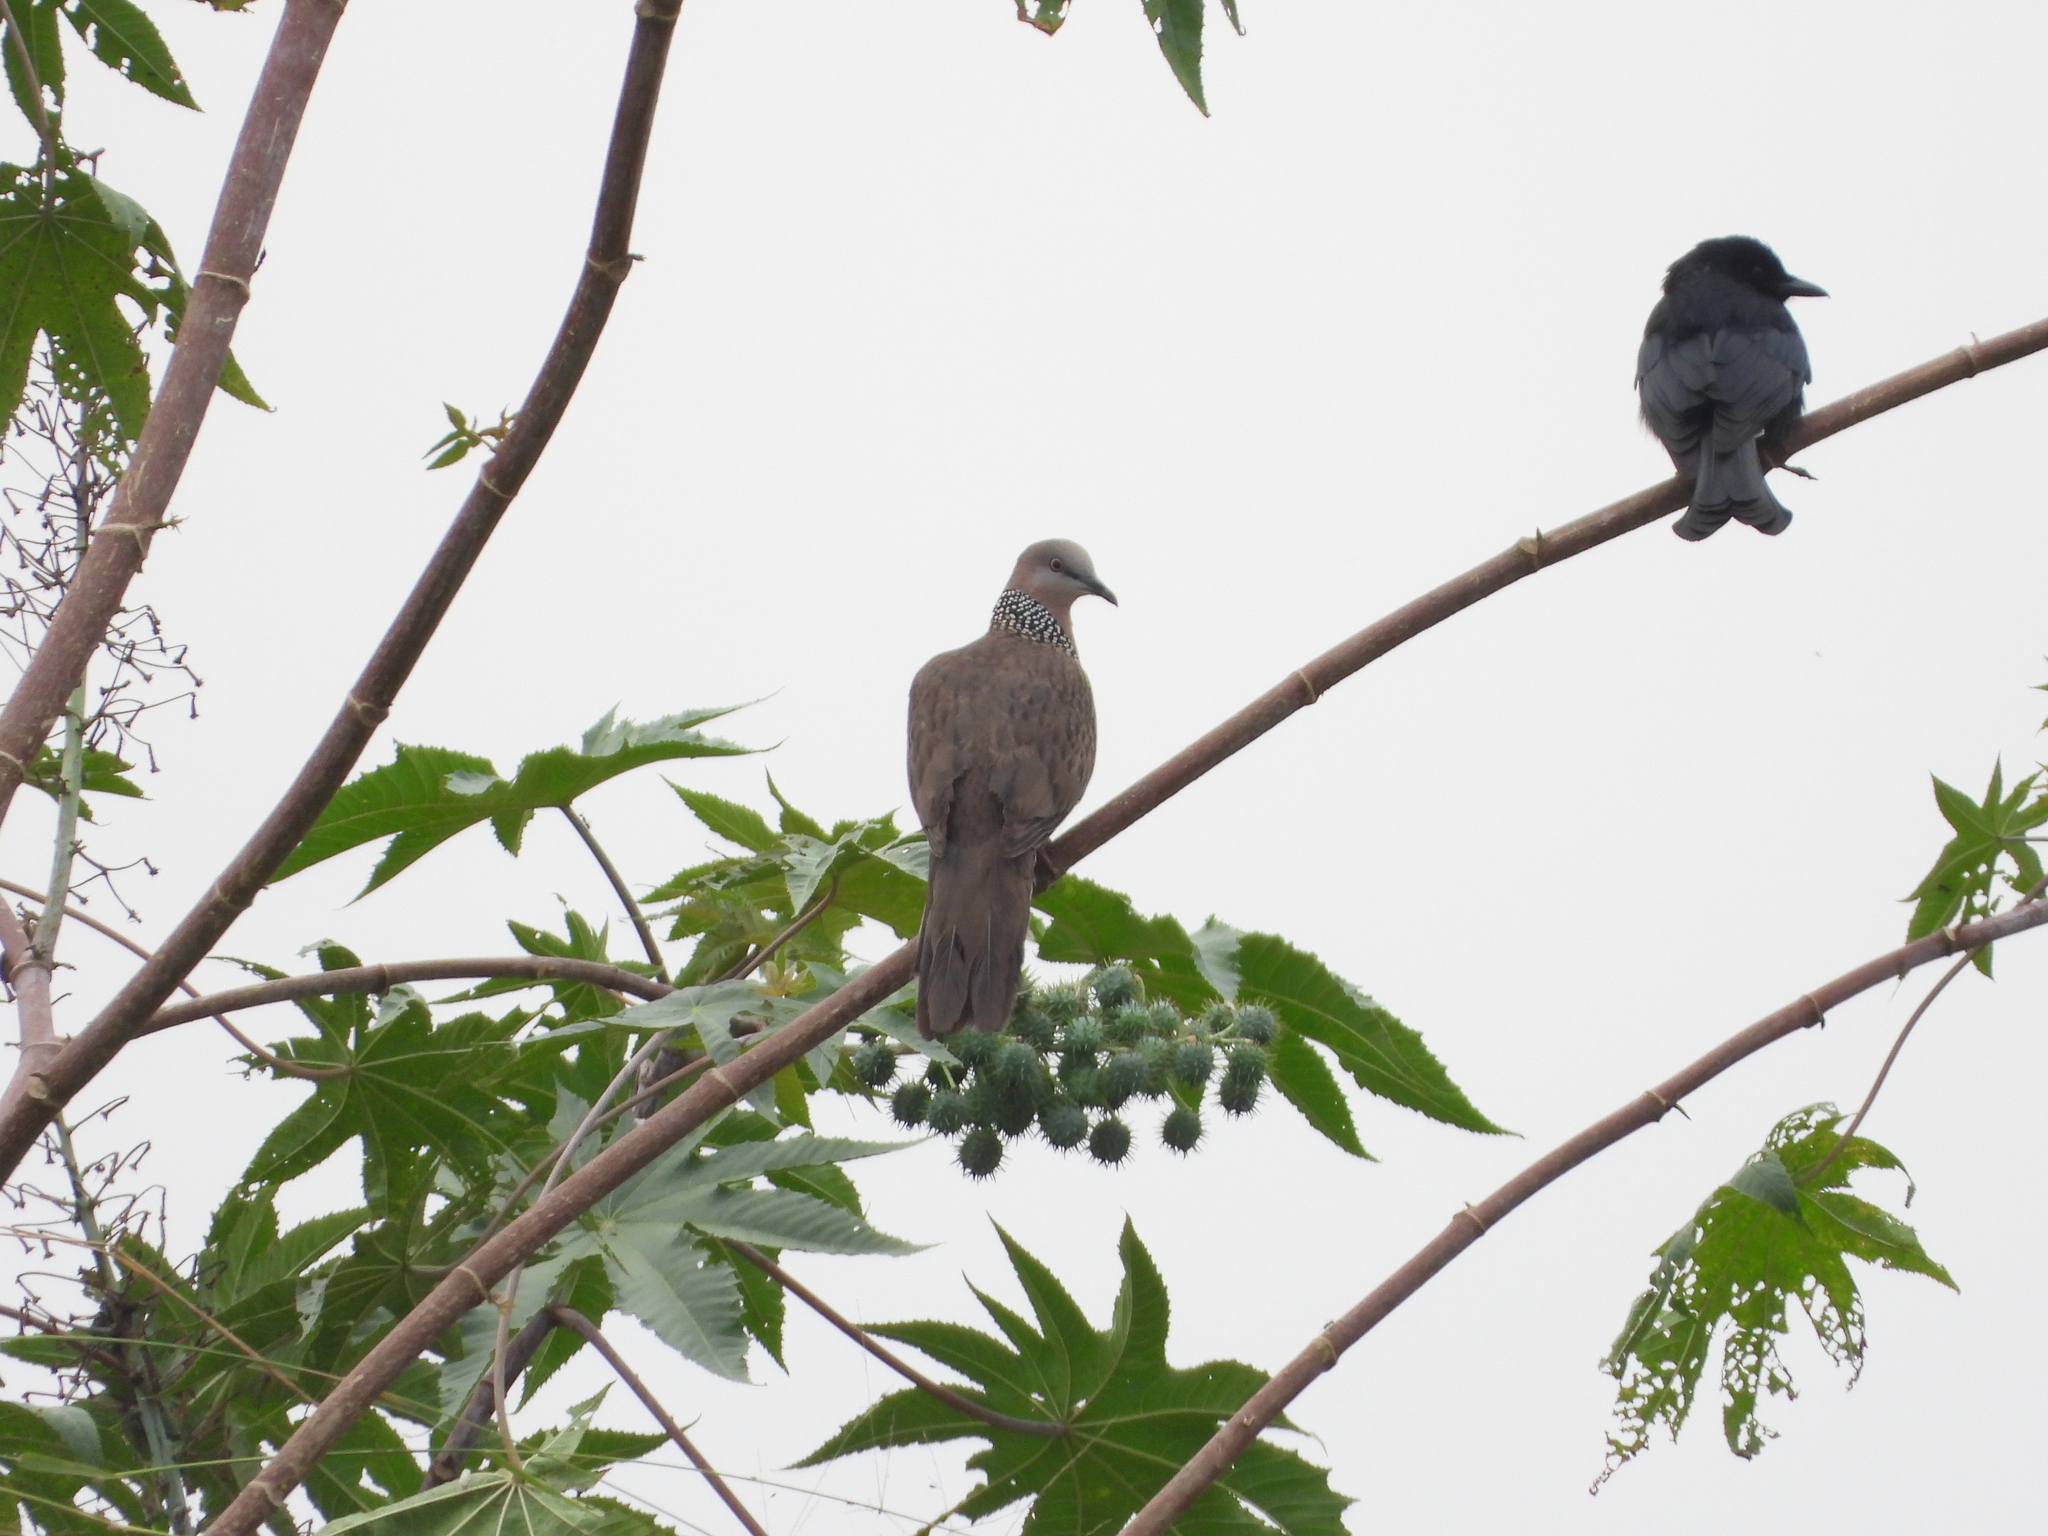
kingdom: Animalia
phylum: Chordata
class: Aves
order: Columbiformes
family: Columbidae
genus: Spilopelia
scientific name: Spilopelia chinensis
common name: Spotted dove
